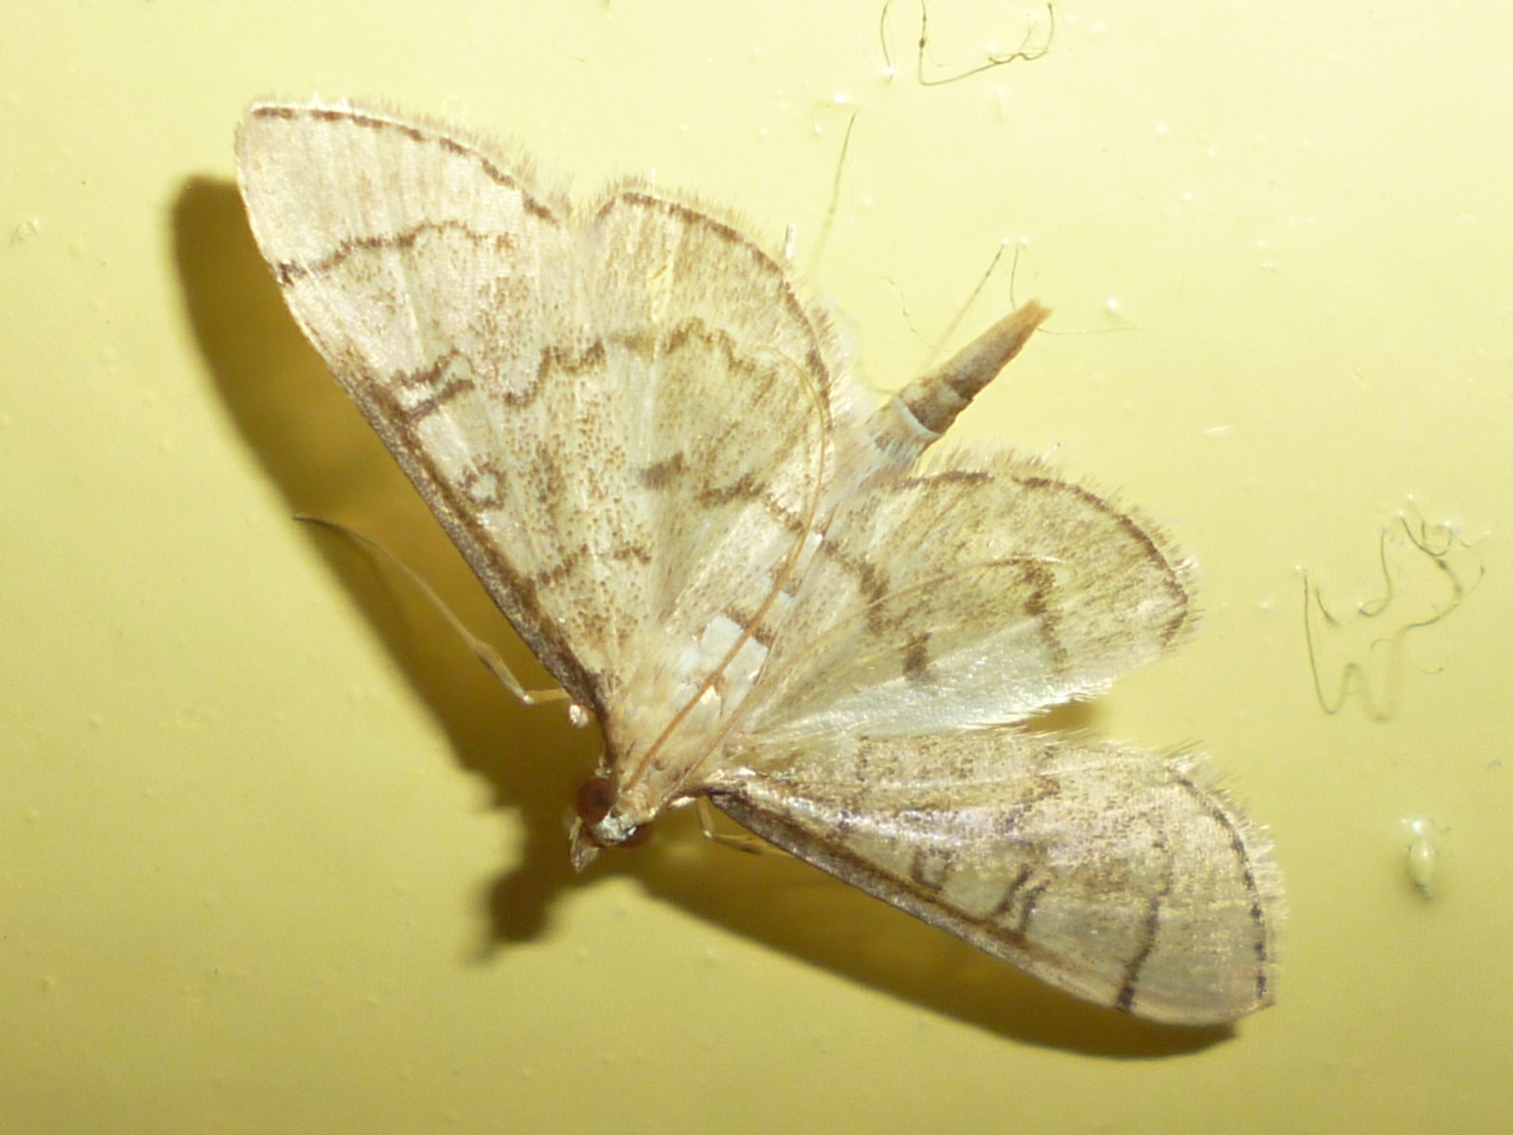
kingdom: Animalia
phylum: Arthropoda
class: Insecta
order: Lepidoptera
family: Crambidae
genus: Lamprosema
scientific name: Lamprosema Blepharomastix ranalis
